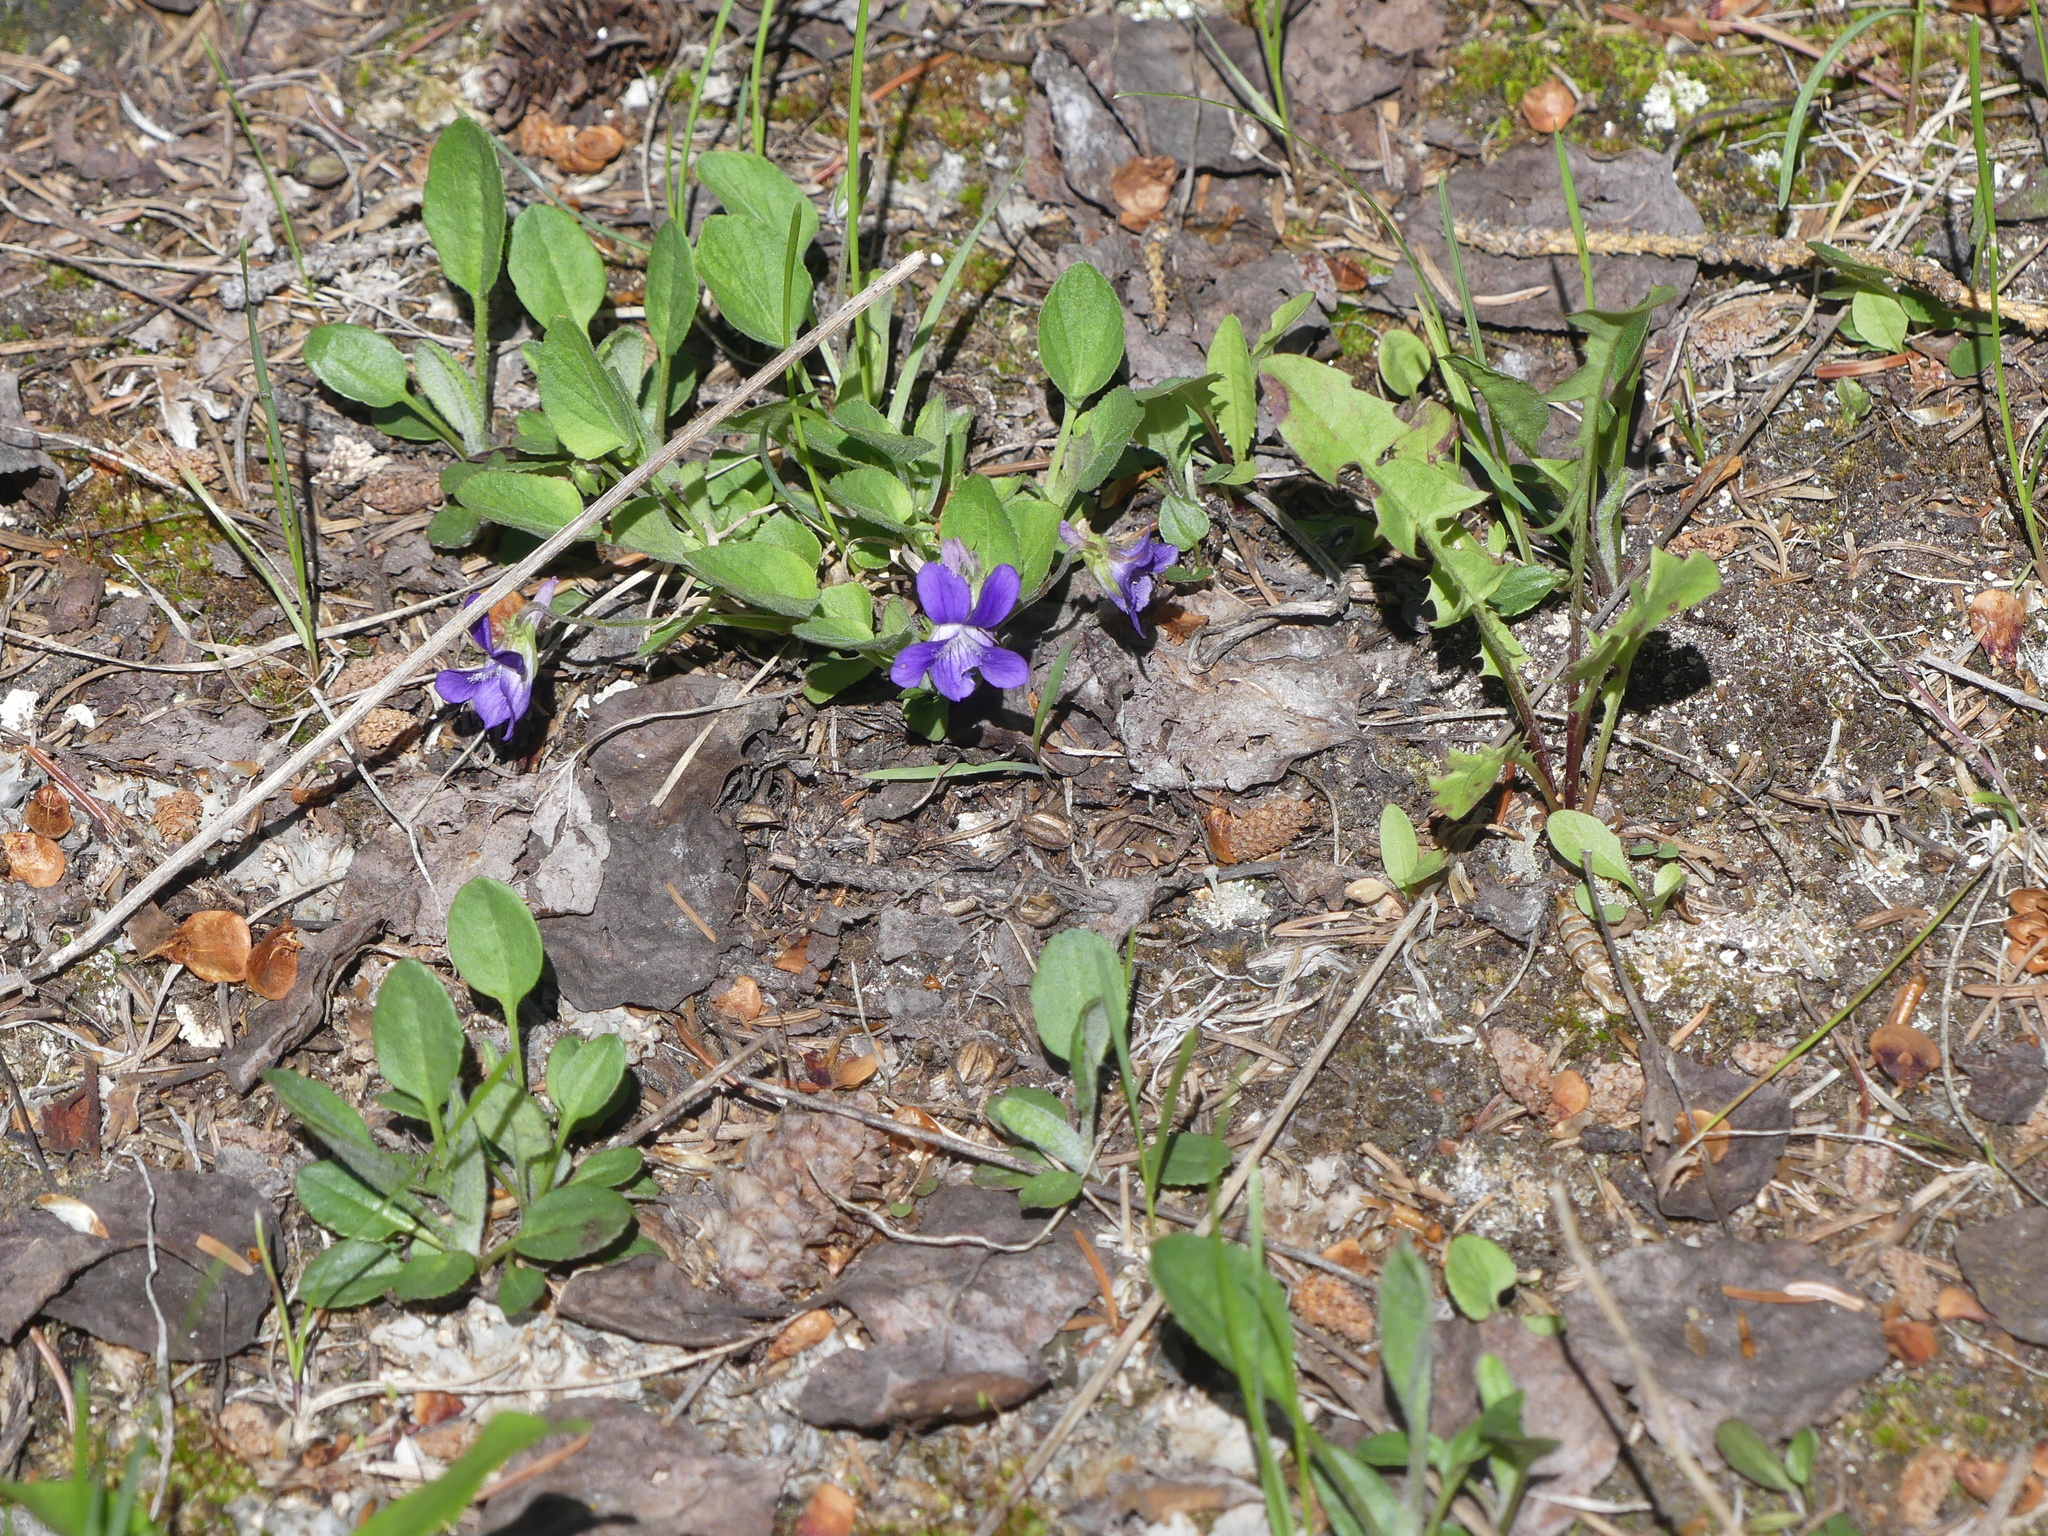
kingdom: Plantae
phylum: Tracheophyta
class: Magnoliopsida
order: Malpighiales
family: Violaceae
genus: Viola
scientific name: Viola adunca
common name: Sand violet
